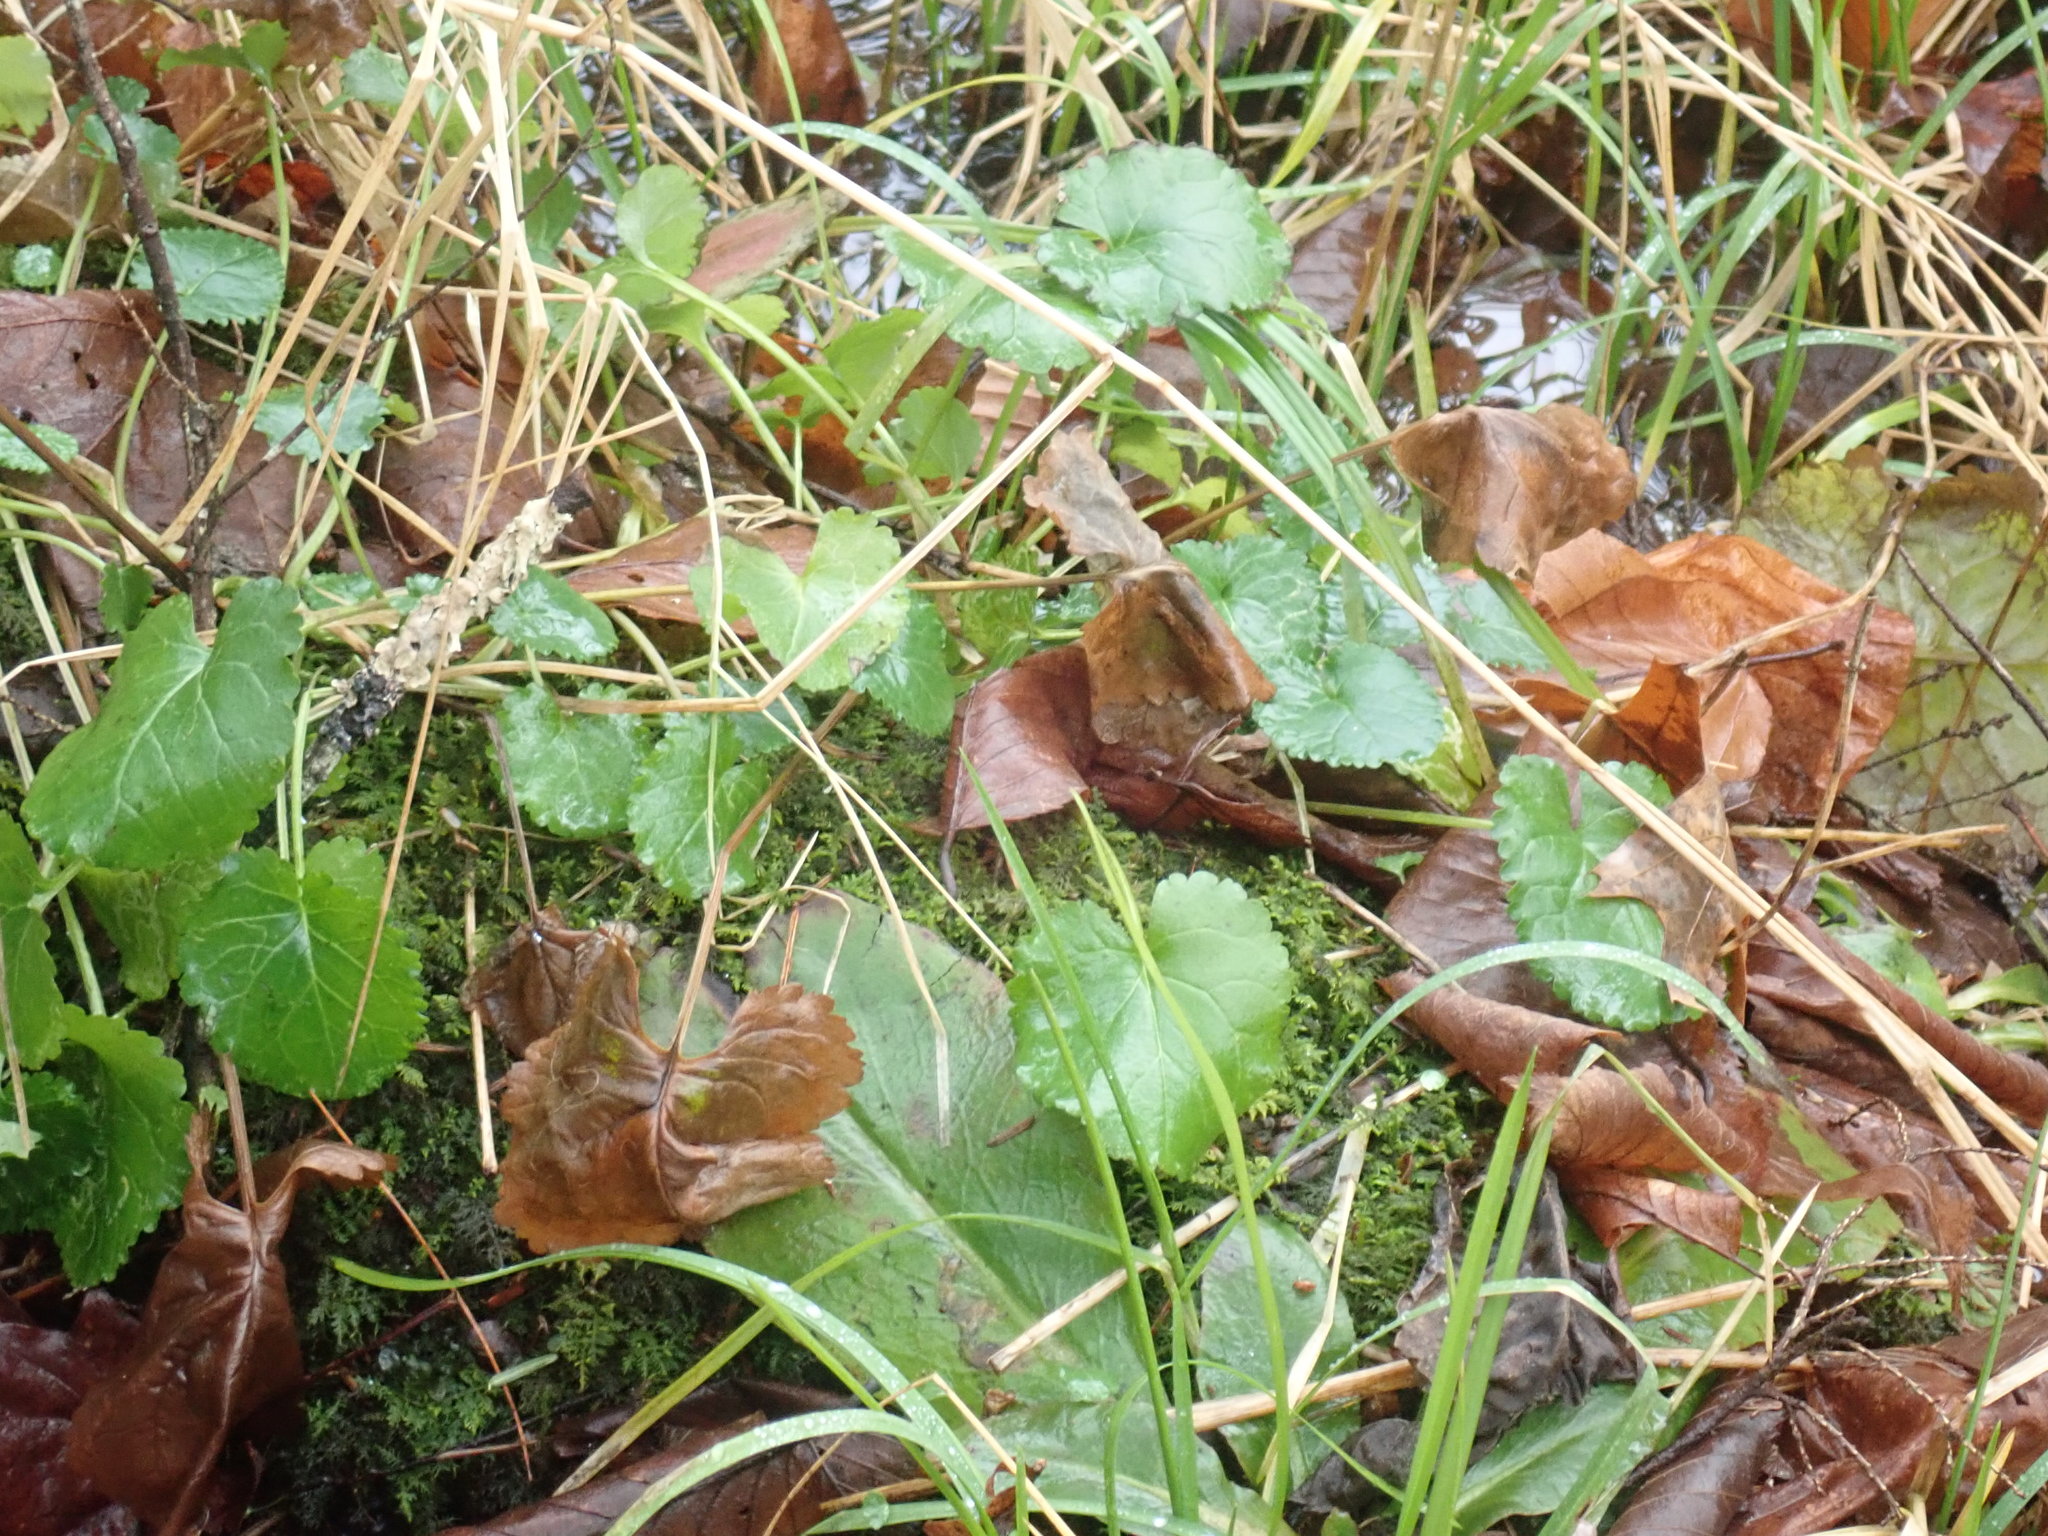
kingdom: Plantae
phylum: Tracheophyta
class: Magnoliopsida
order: Asterales
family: Asteraceae
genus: Packera
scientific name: Packera aurea
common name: Golden groundsel
